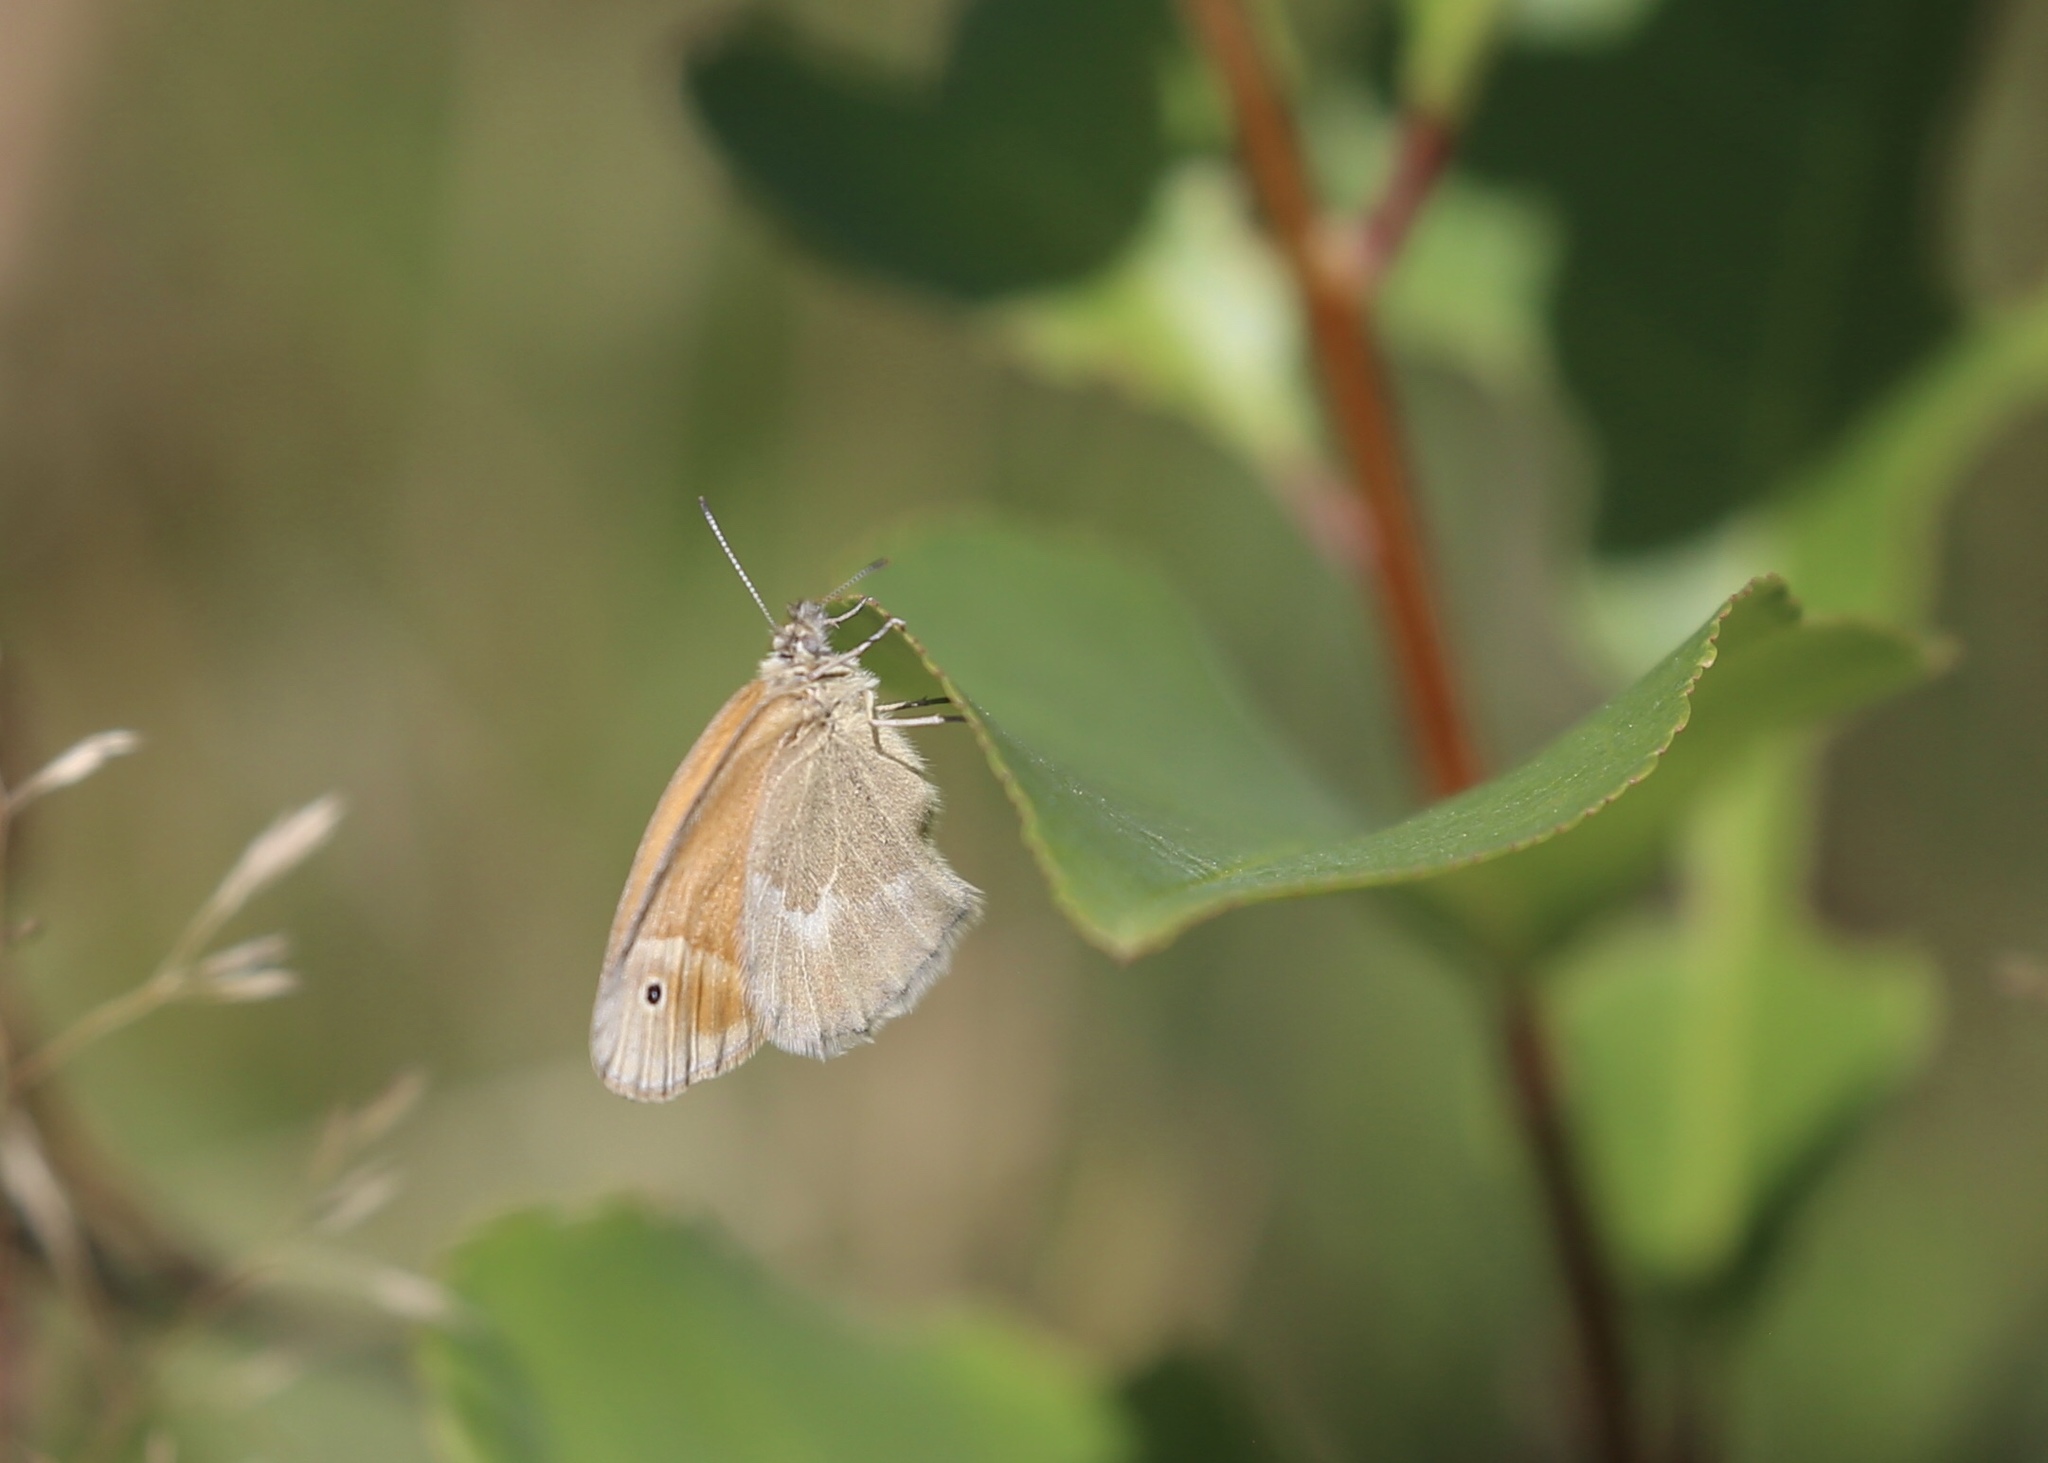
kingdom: Animalia
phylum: Arthropoda
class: Insecta
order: Lepidoptera
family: Nymphalidae
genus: Coenonympha
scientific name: Coenonympha california
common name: Common ringlet
